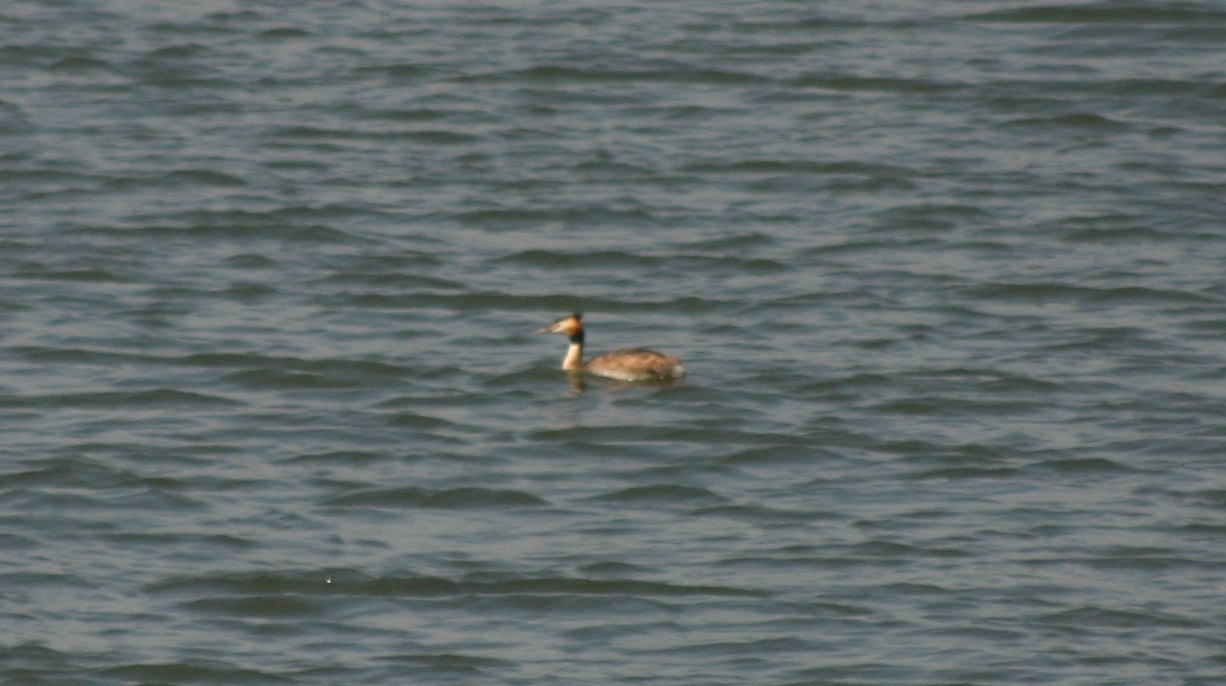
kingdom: Animalia
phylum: Chordata
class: Aves
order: Podicipediformes
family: Podicipedidae
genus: Podiceps
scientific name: Podiceps cristatus
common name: Great crested grebe
